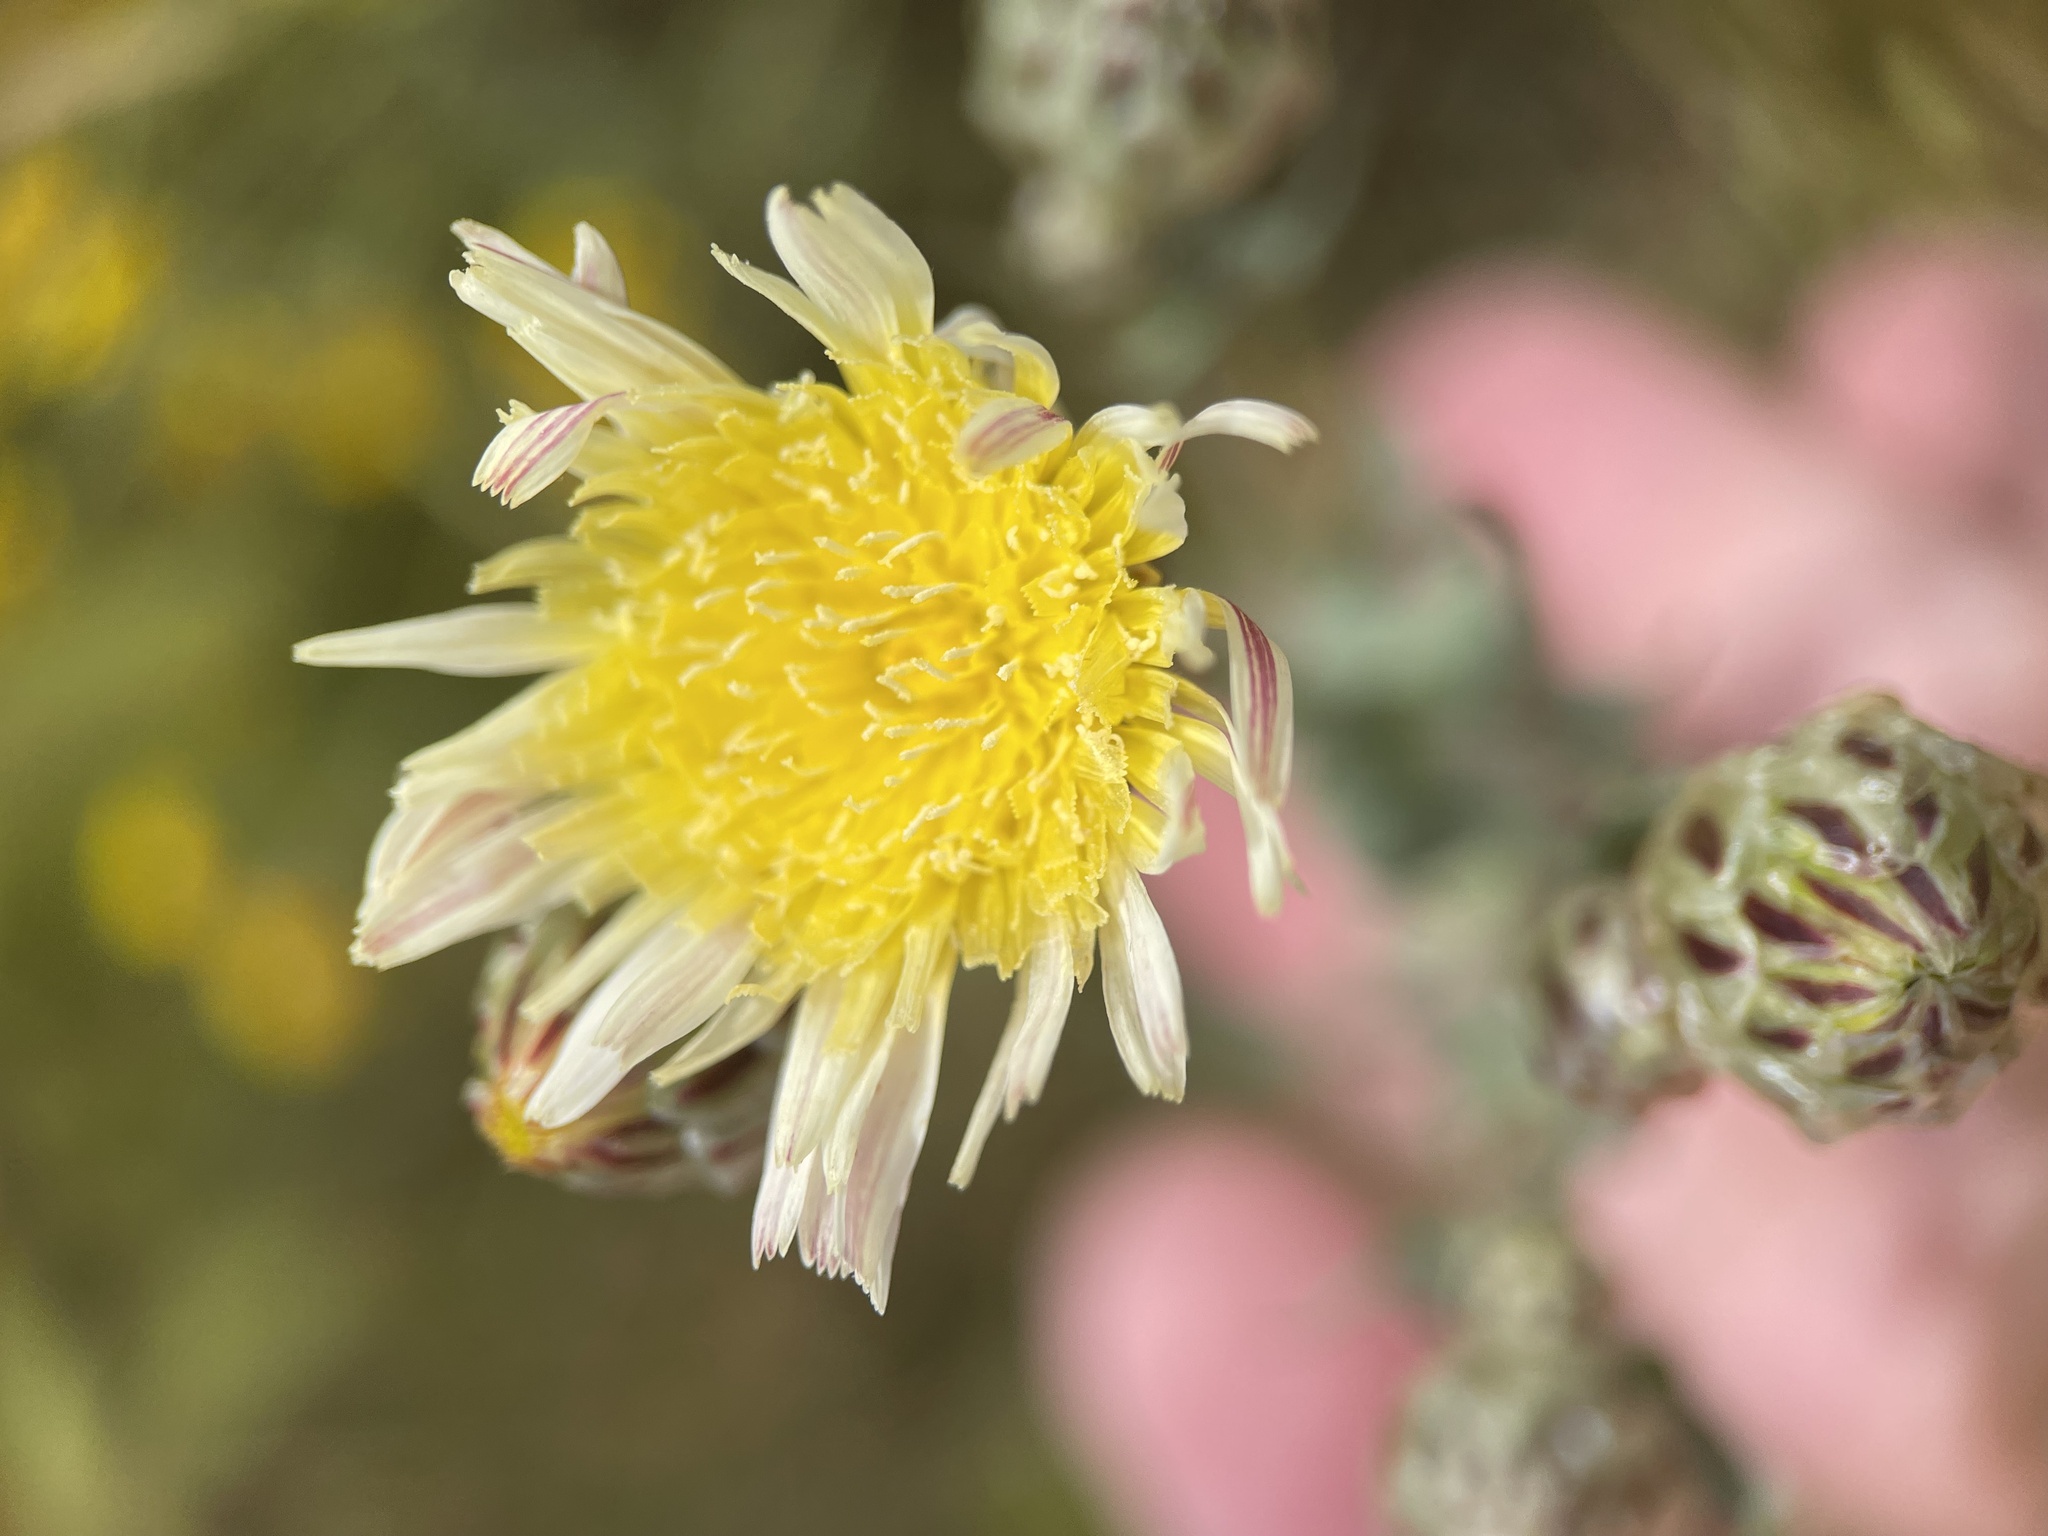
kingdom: Plantae
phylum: Tracheophyta
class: Magnoliopsida
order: Asterales
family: Asteraceae
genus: Malacothrix
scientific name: Malacothrix coulteri
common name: Snake's-head
